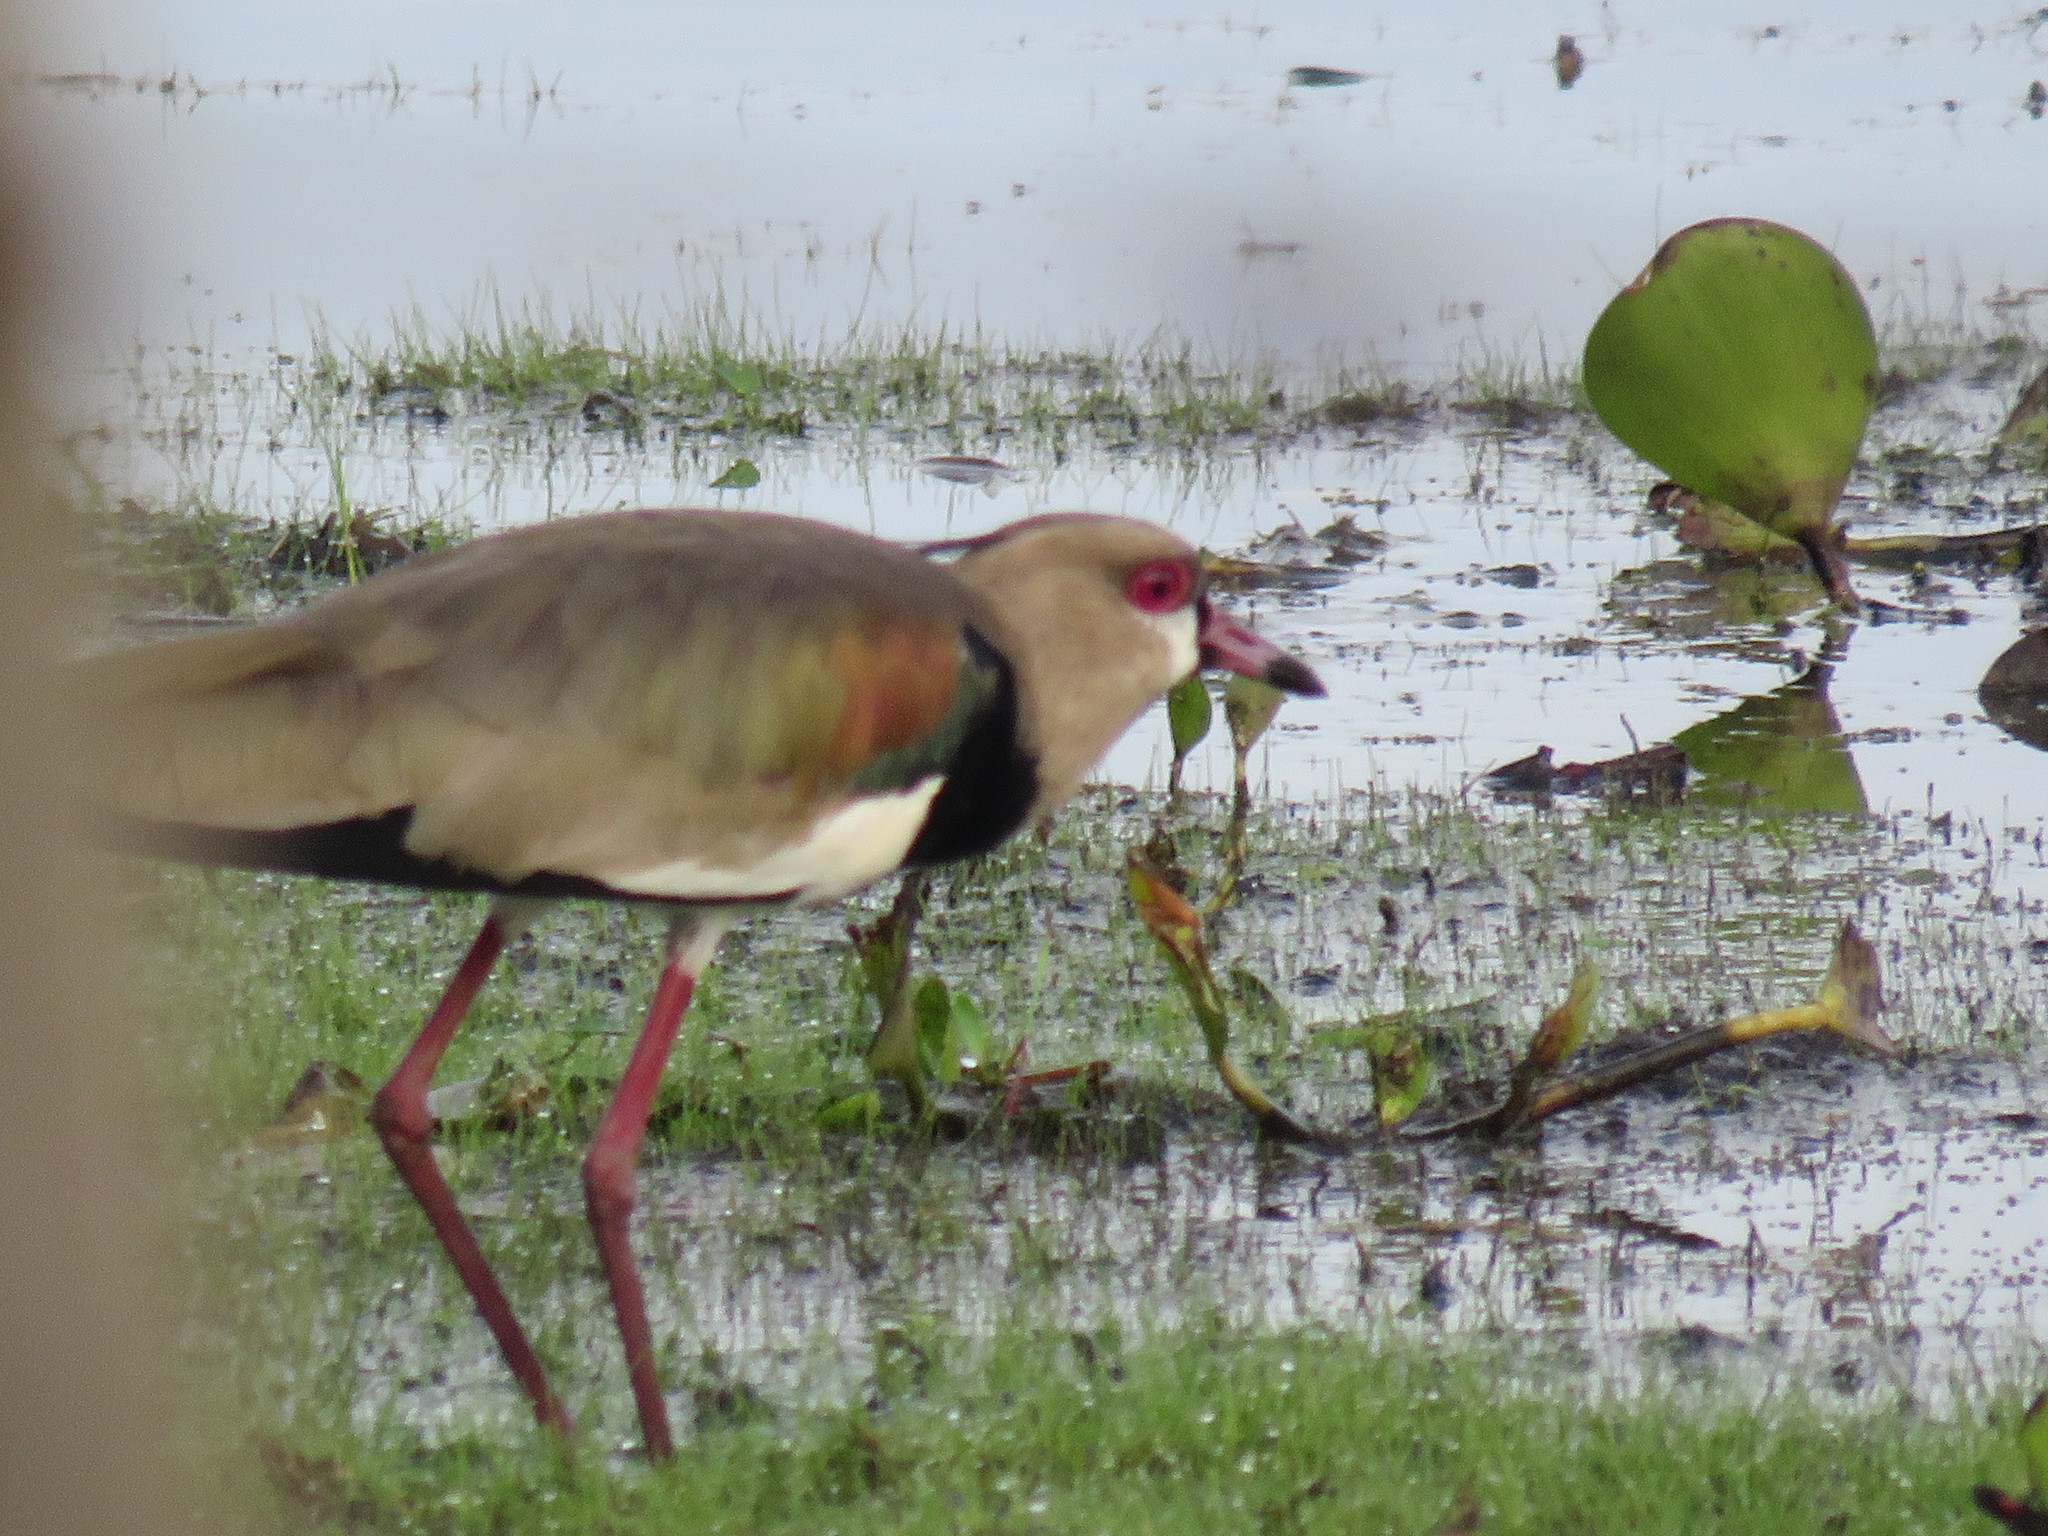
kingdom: Animalia
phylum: Chordata
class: Aves
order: Charadriiformes
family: Charadriidae
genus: Vanellus
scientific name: Vanellus chilensis
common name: Southern lapwing
